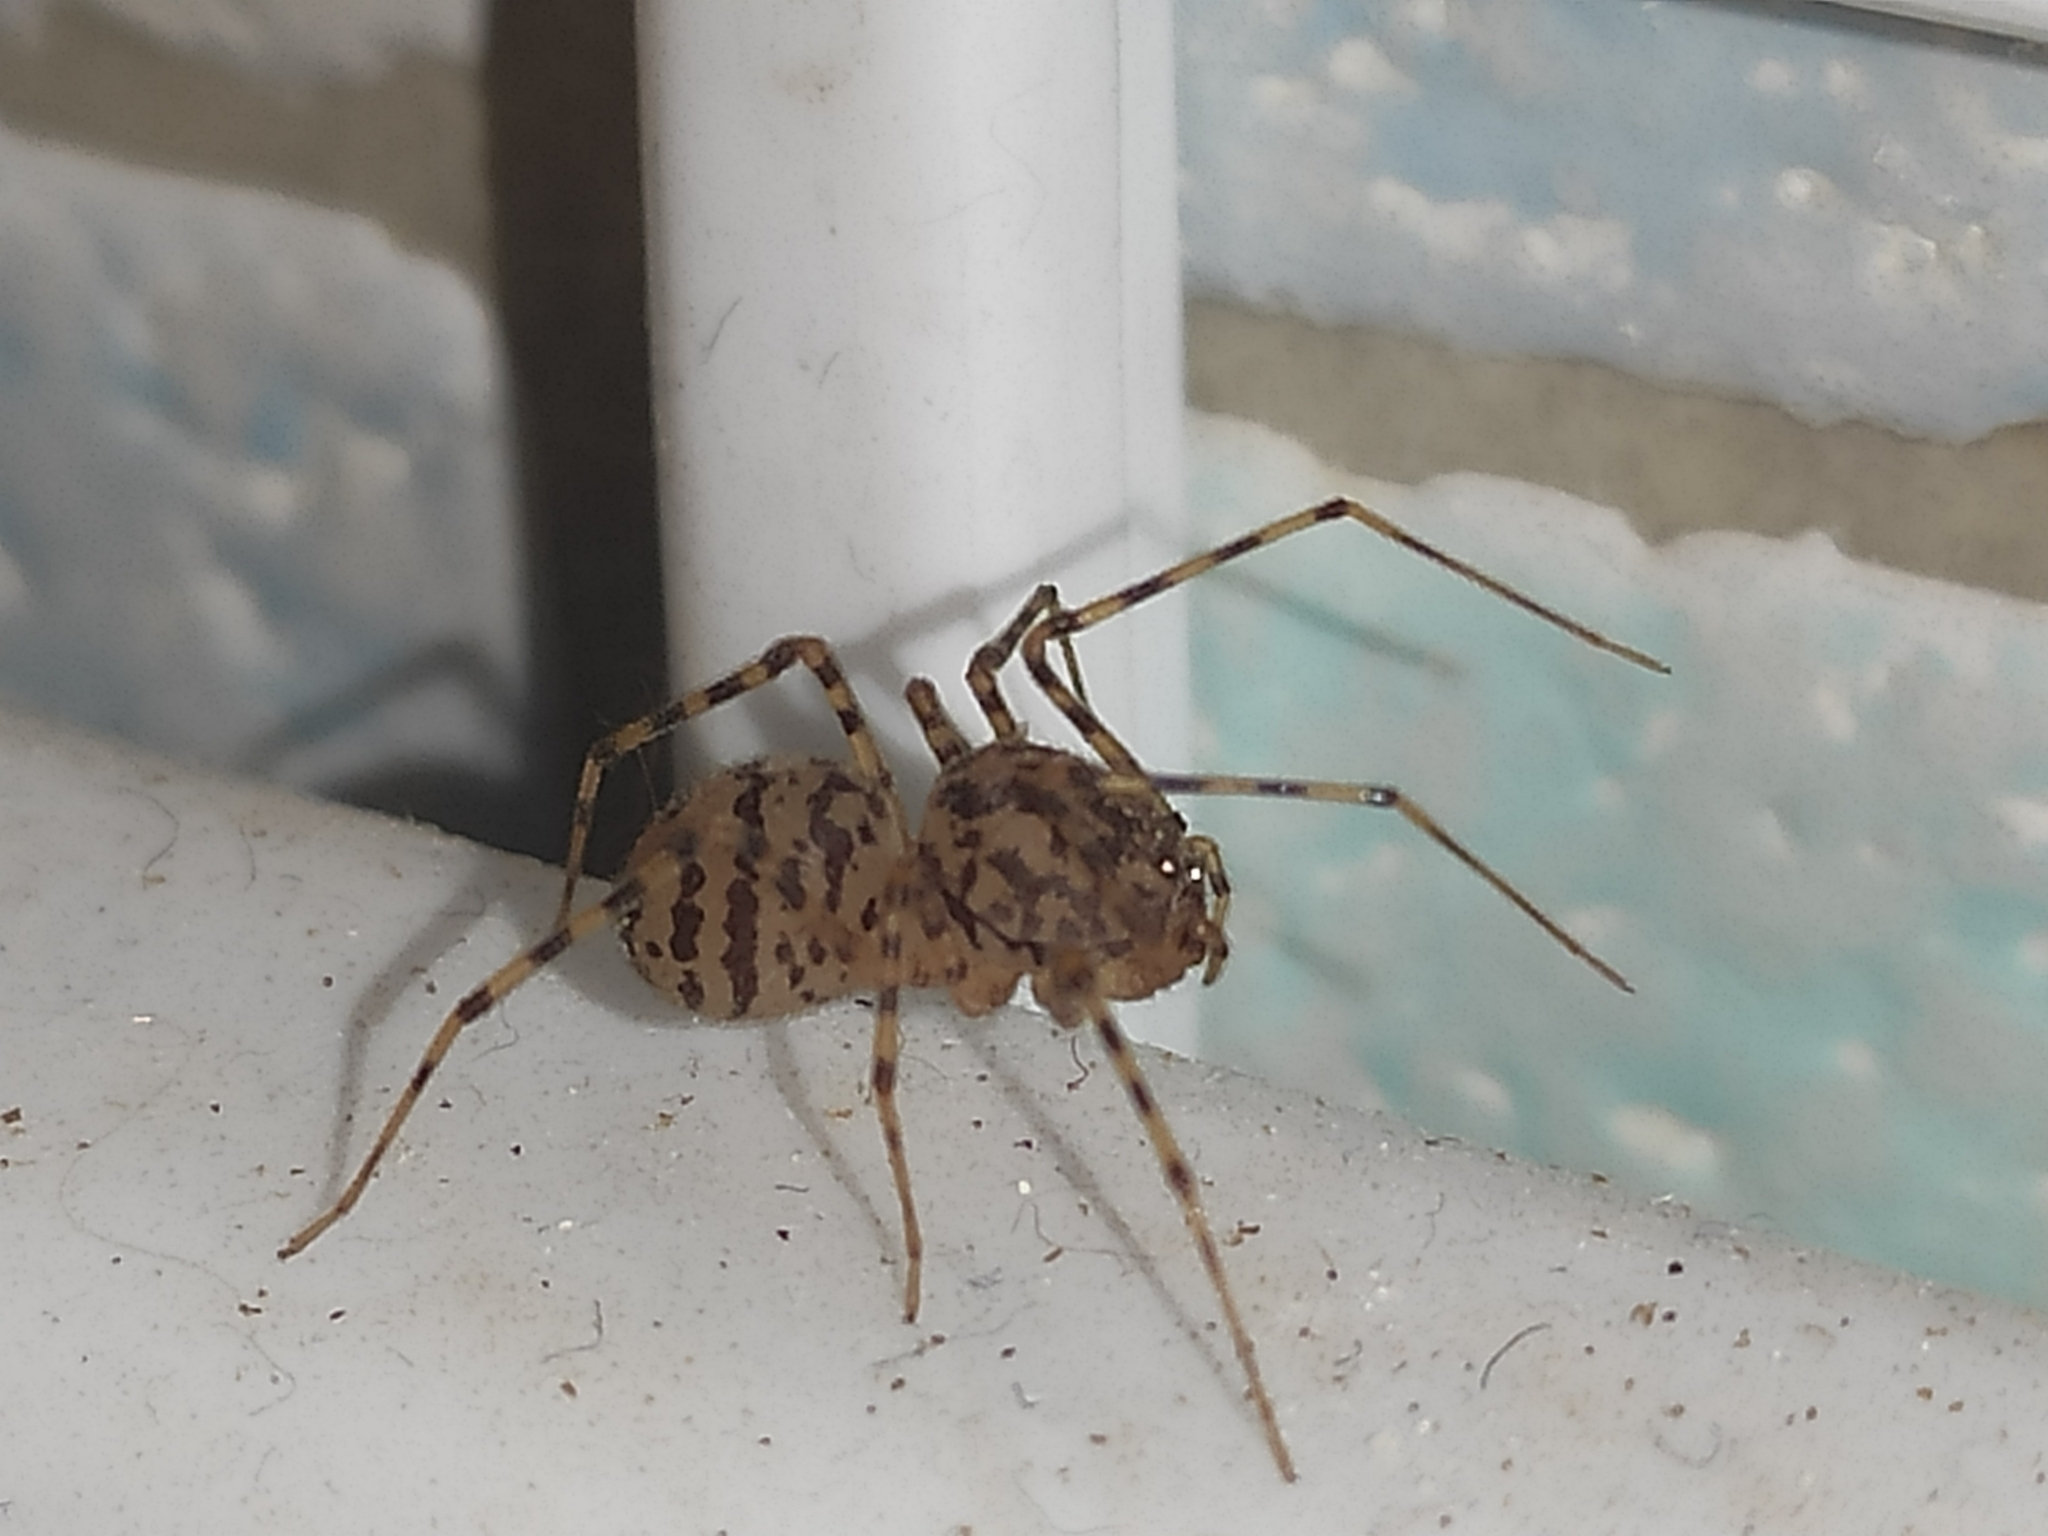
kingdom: Animalia
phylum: Arthropoda
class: Arachnida
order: Araneae
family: Scytodidae
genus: Scytodes
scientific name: Scytodes thoracica
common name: Spitting spider
